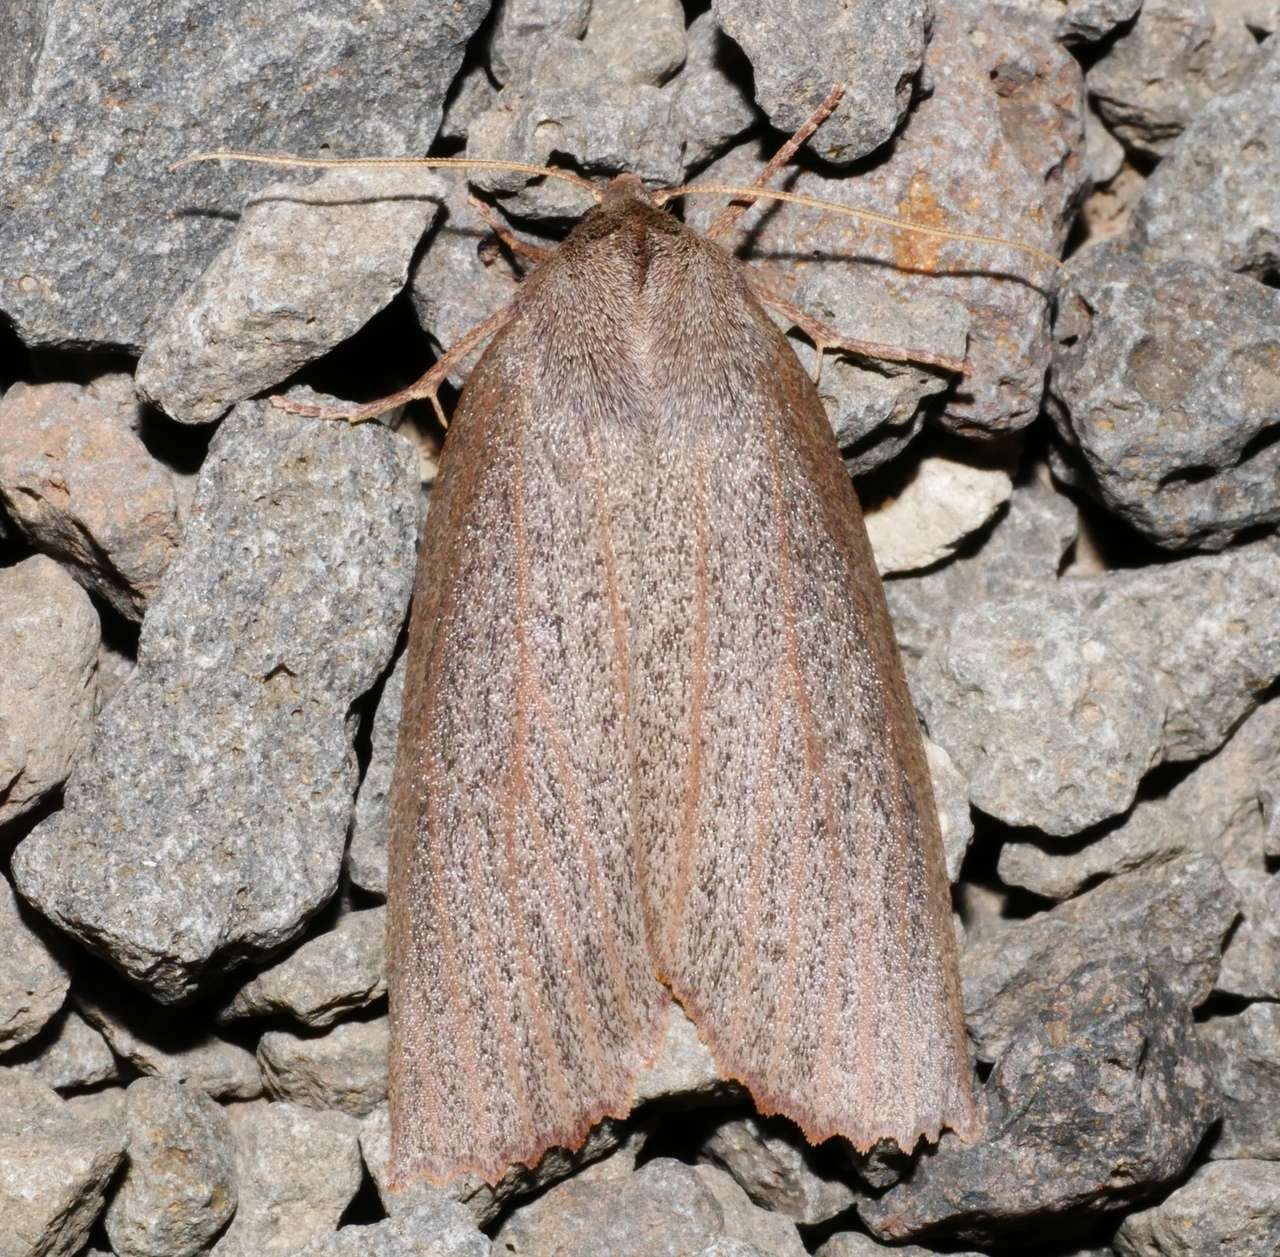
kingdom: Animalia
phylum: Arthropoda
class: Insecta
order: Lepidoptera
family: Geometridae
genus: Paralaea
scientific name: Paralaea porphyrinaria
